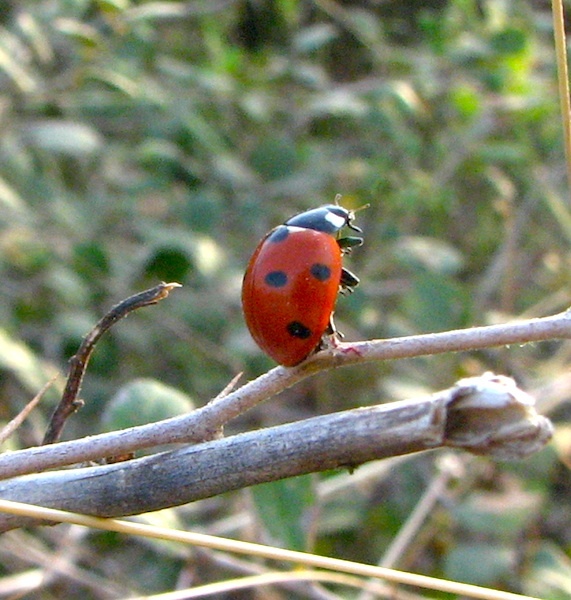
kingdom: Animalia
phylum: Arthropoda
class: Insecta
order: Coleoptera
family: Coccinellidae
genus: Coccinella
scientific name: Coccinella septempunctata
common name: Sevenspotted lady beetle
